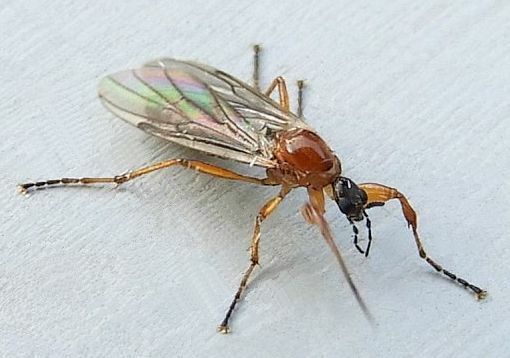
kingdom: Animalia
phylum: Arthropoda
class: Insecta
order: Diptera
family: Bibionidae
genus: Bibio
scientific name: Bibio townesi
